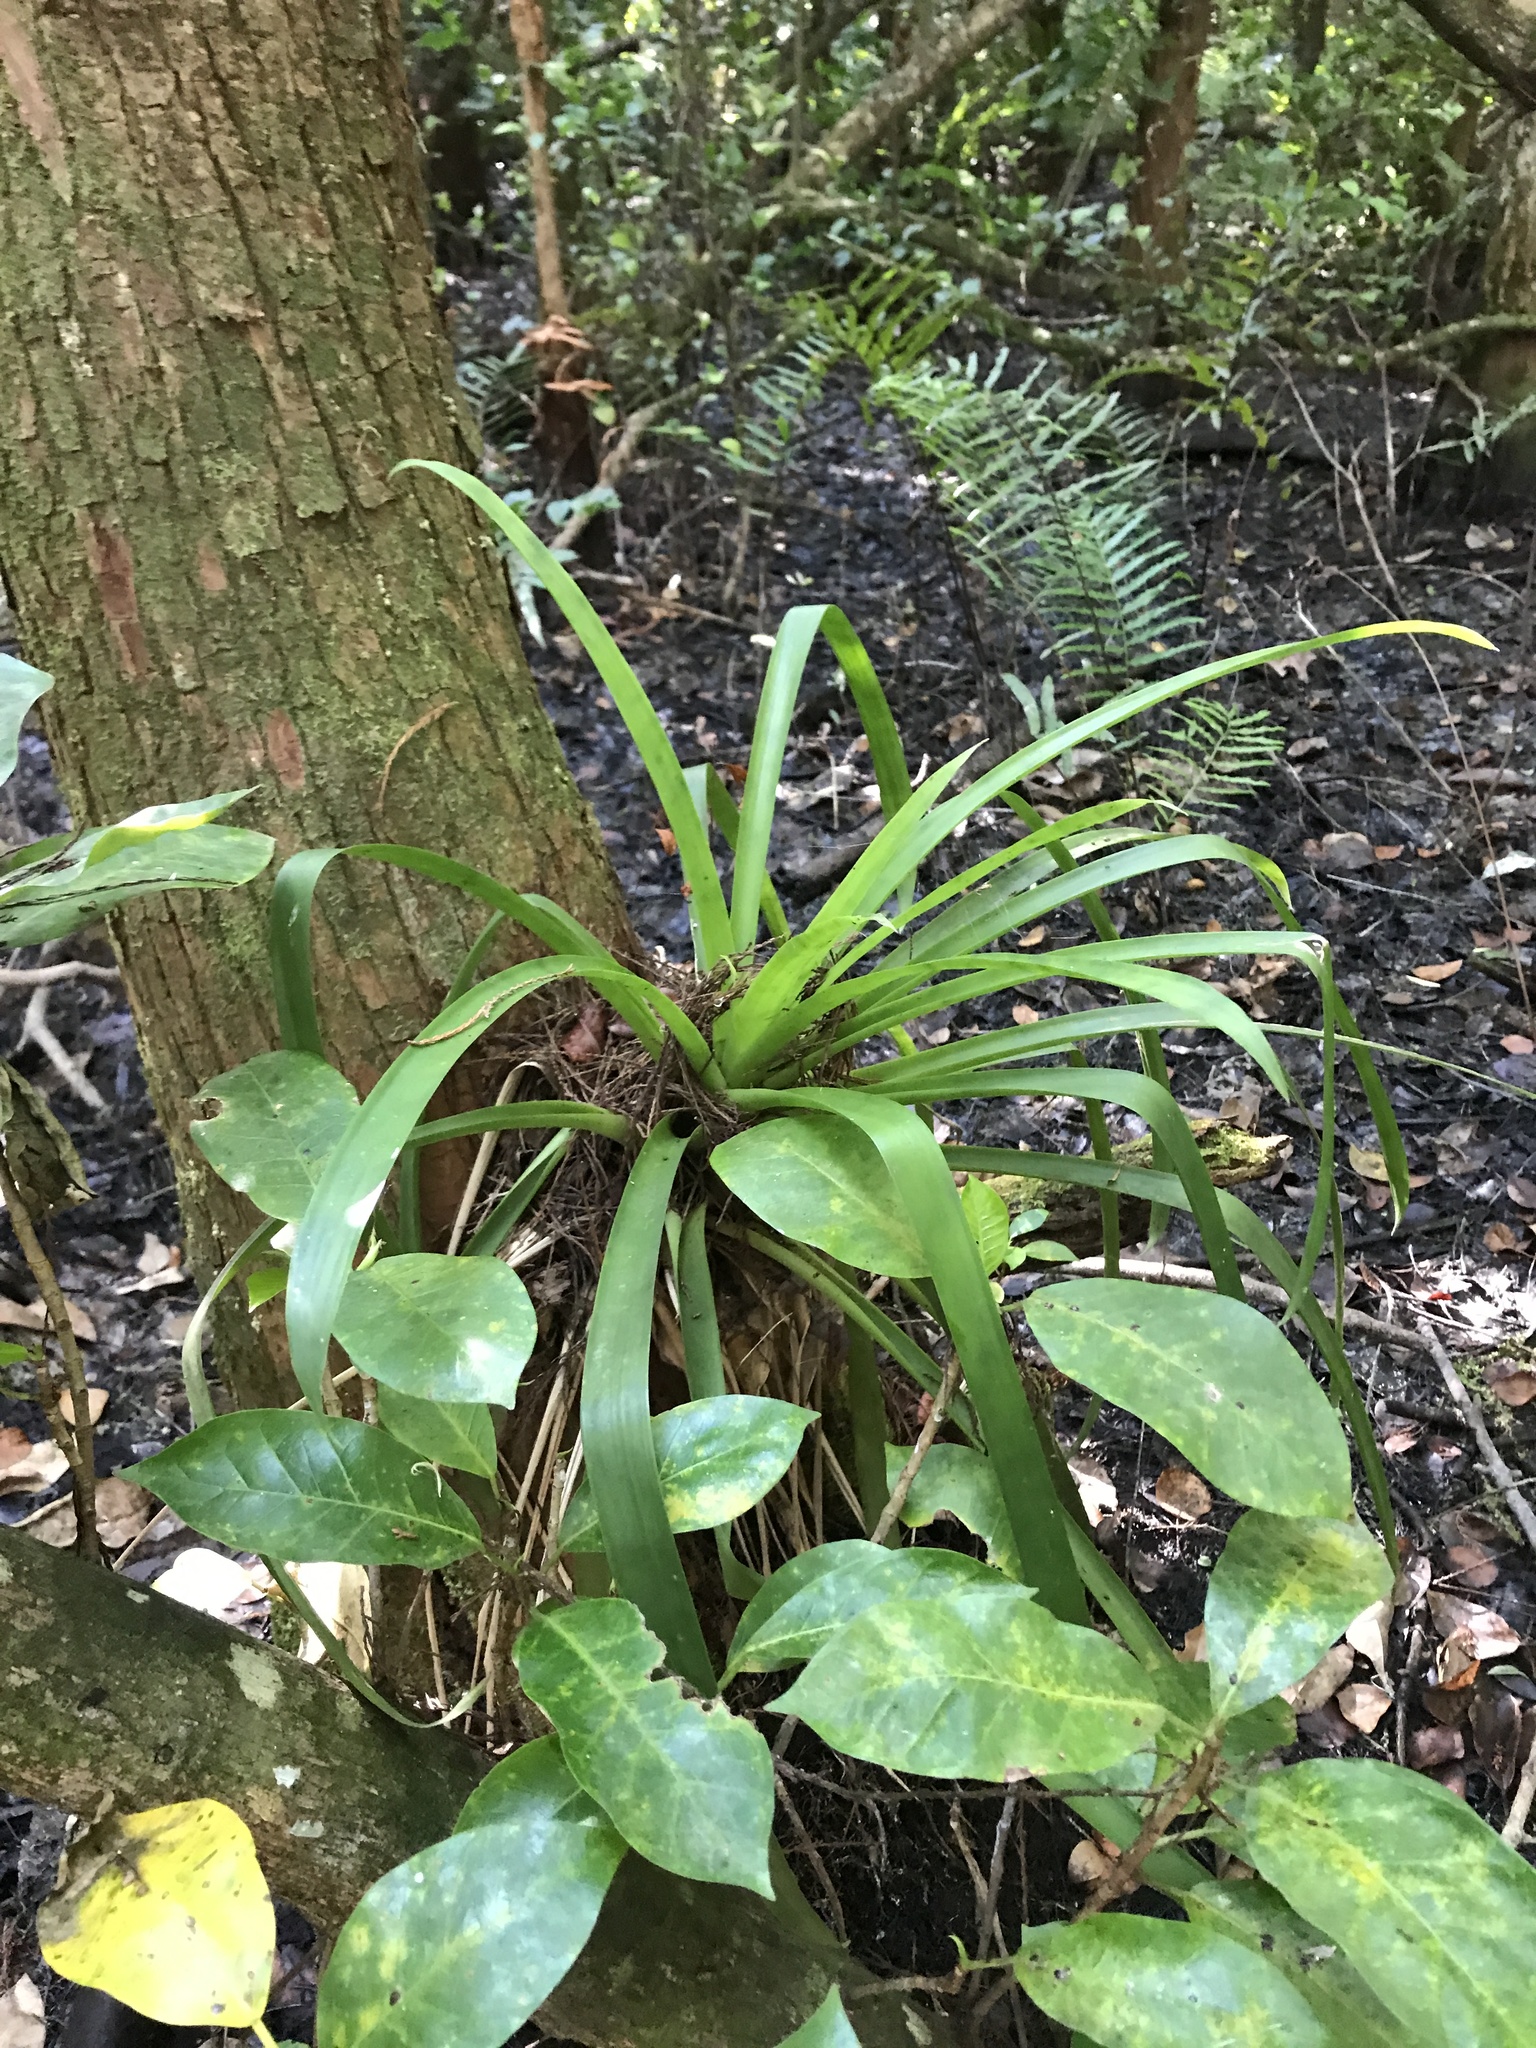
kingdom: Plantae
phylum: Tracheophyta
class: Liliopsida
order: Poales
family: Bromeliaceae
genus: Guzmania
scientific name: Guzmania monostachia
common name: West indian tufted airplant
